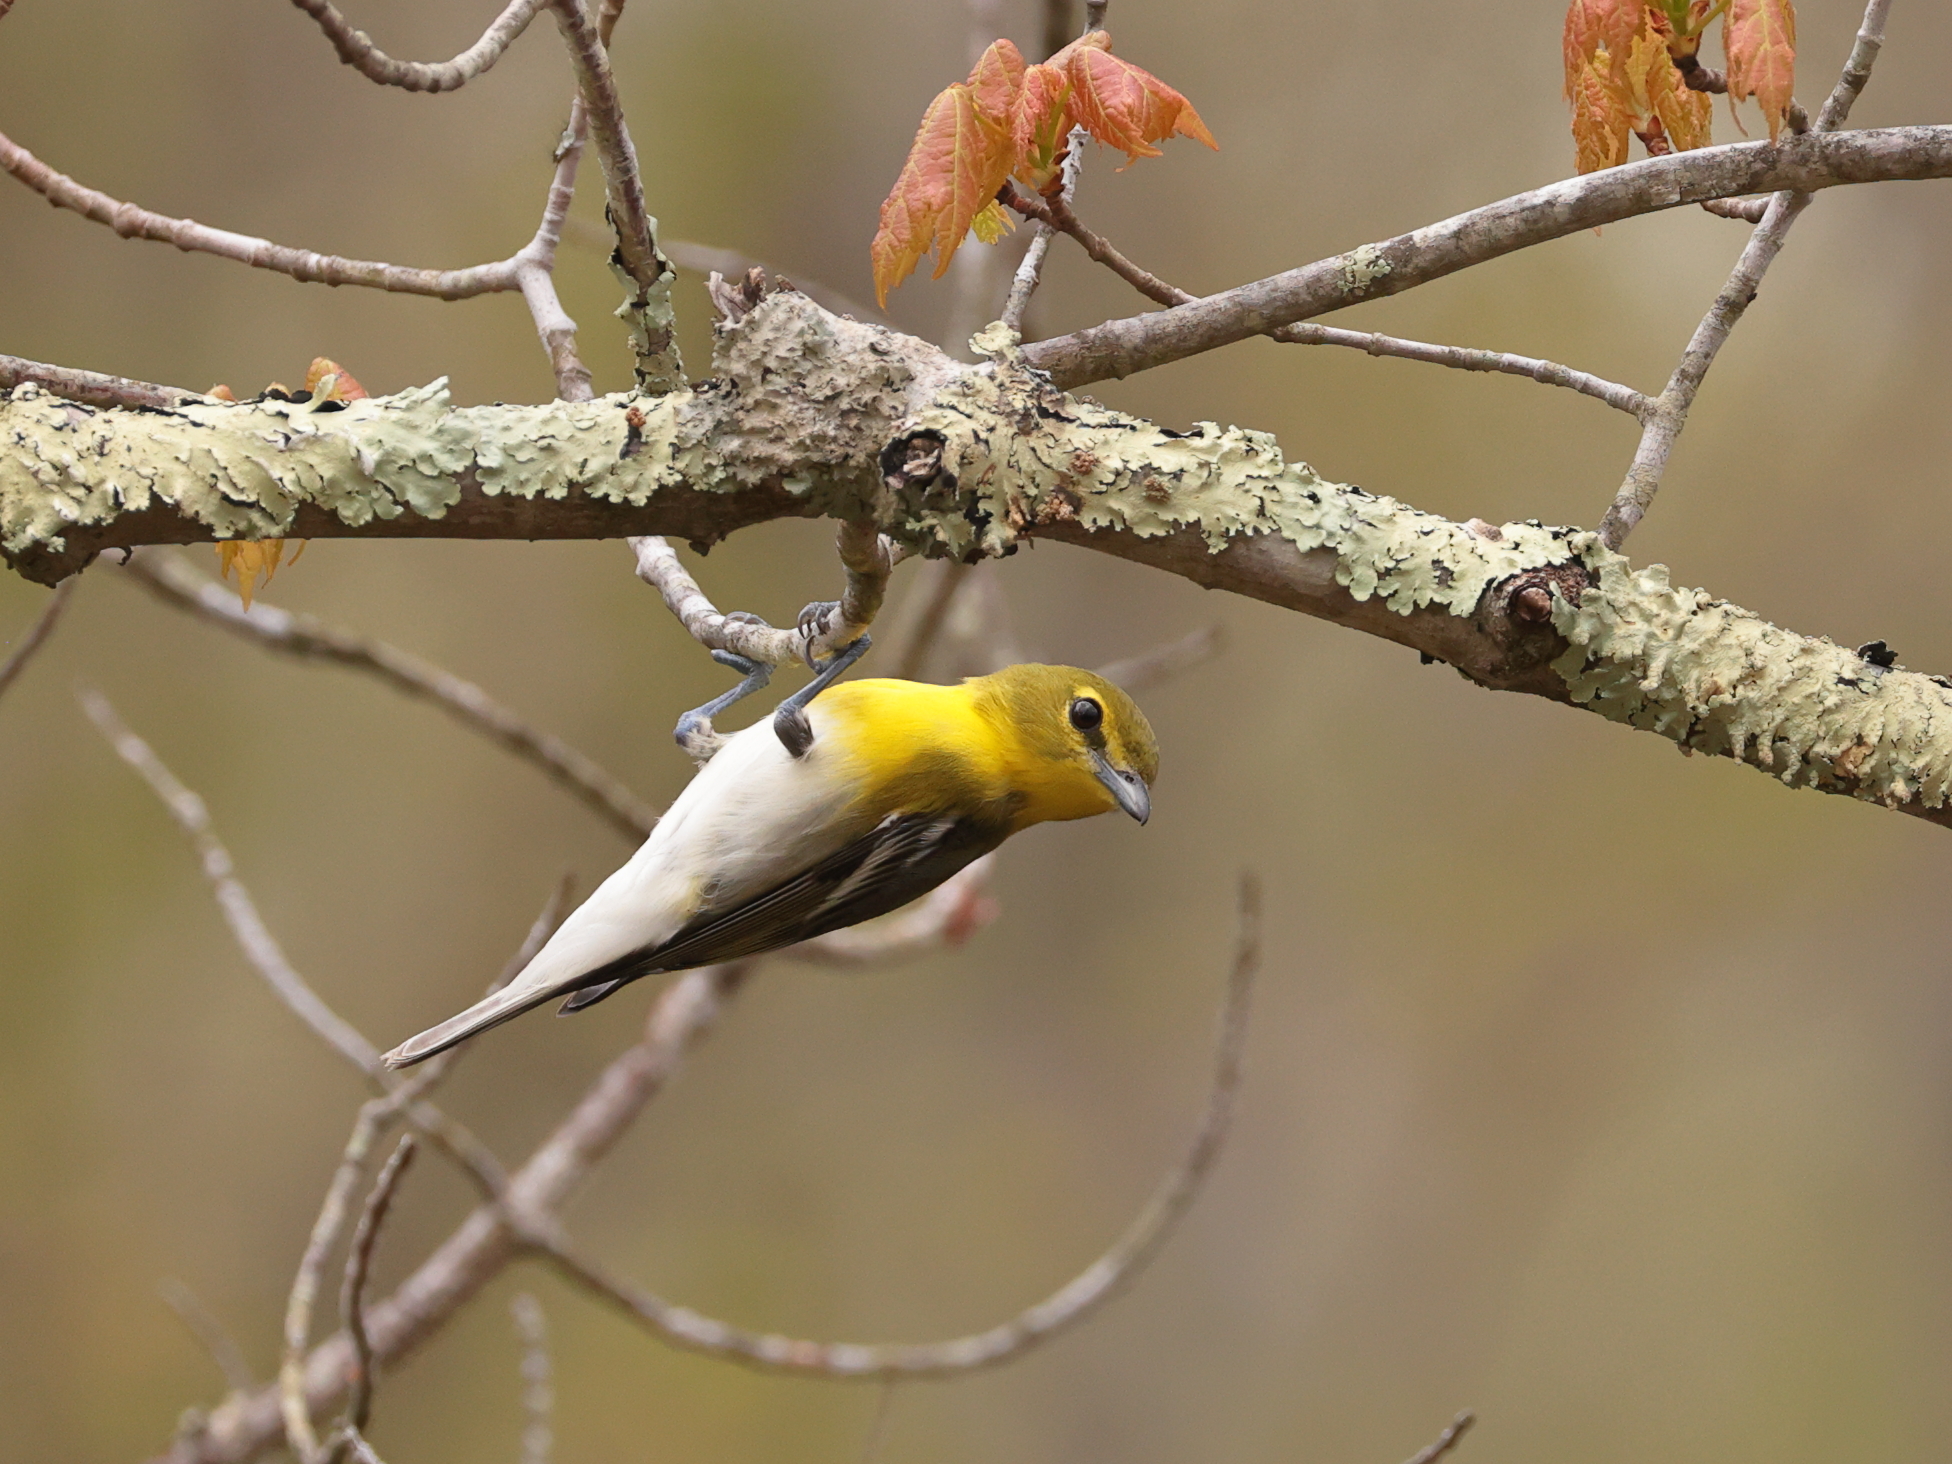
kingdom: Animalia
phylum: Chordata
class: Aves
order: Passeriformes
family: Vireonidae
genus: Vireo
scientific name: Vireo flavifrons
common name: Yellow-throated vireo
